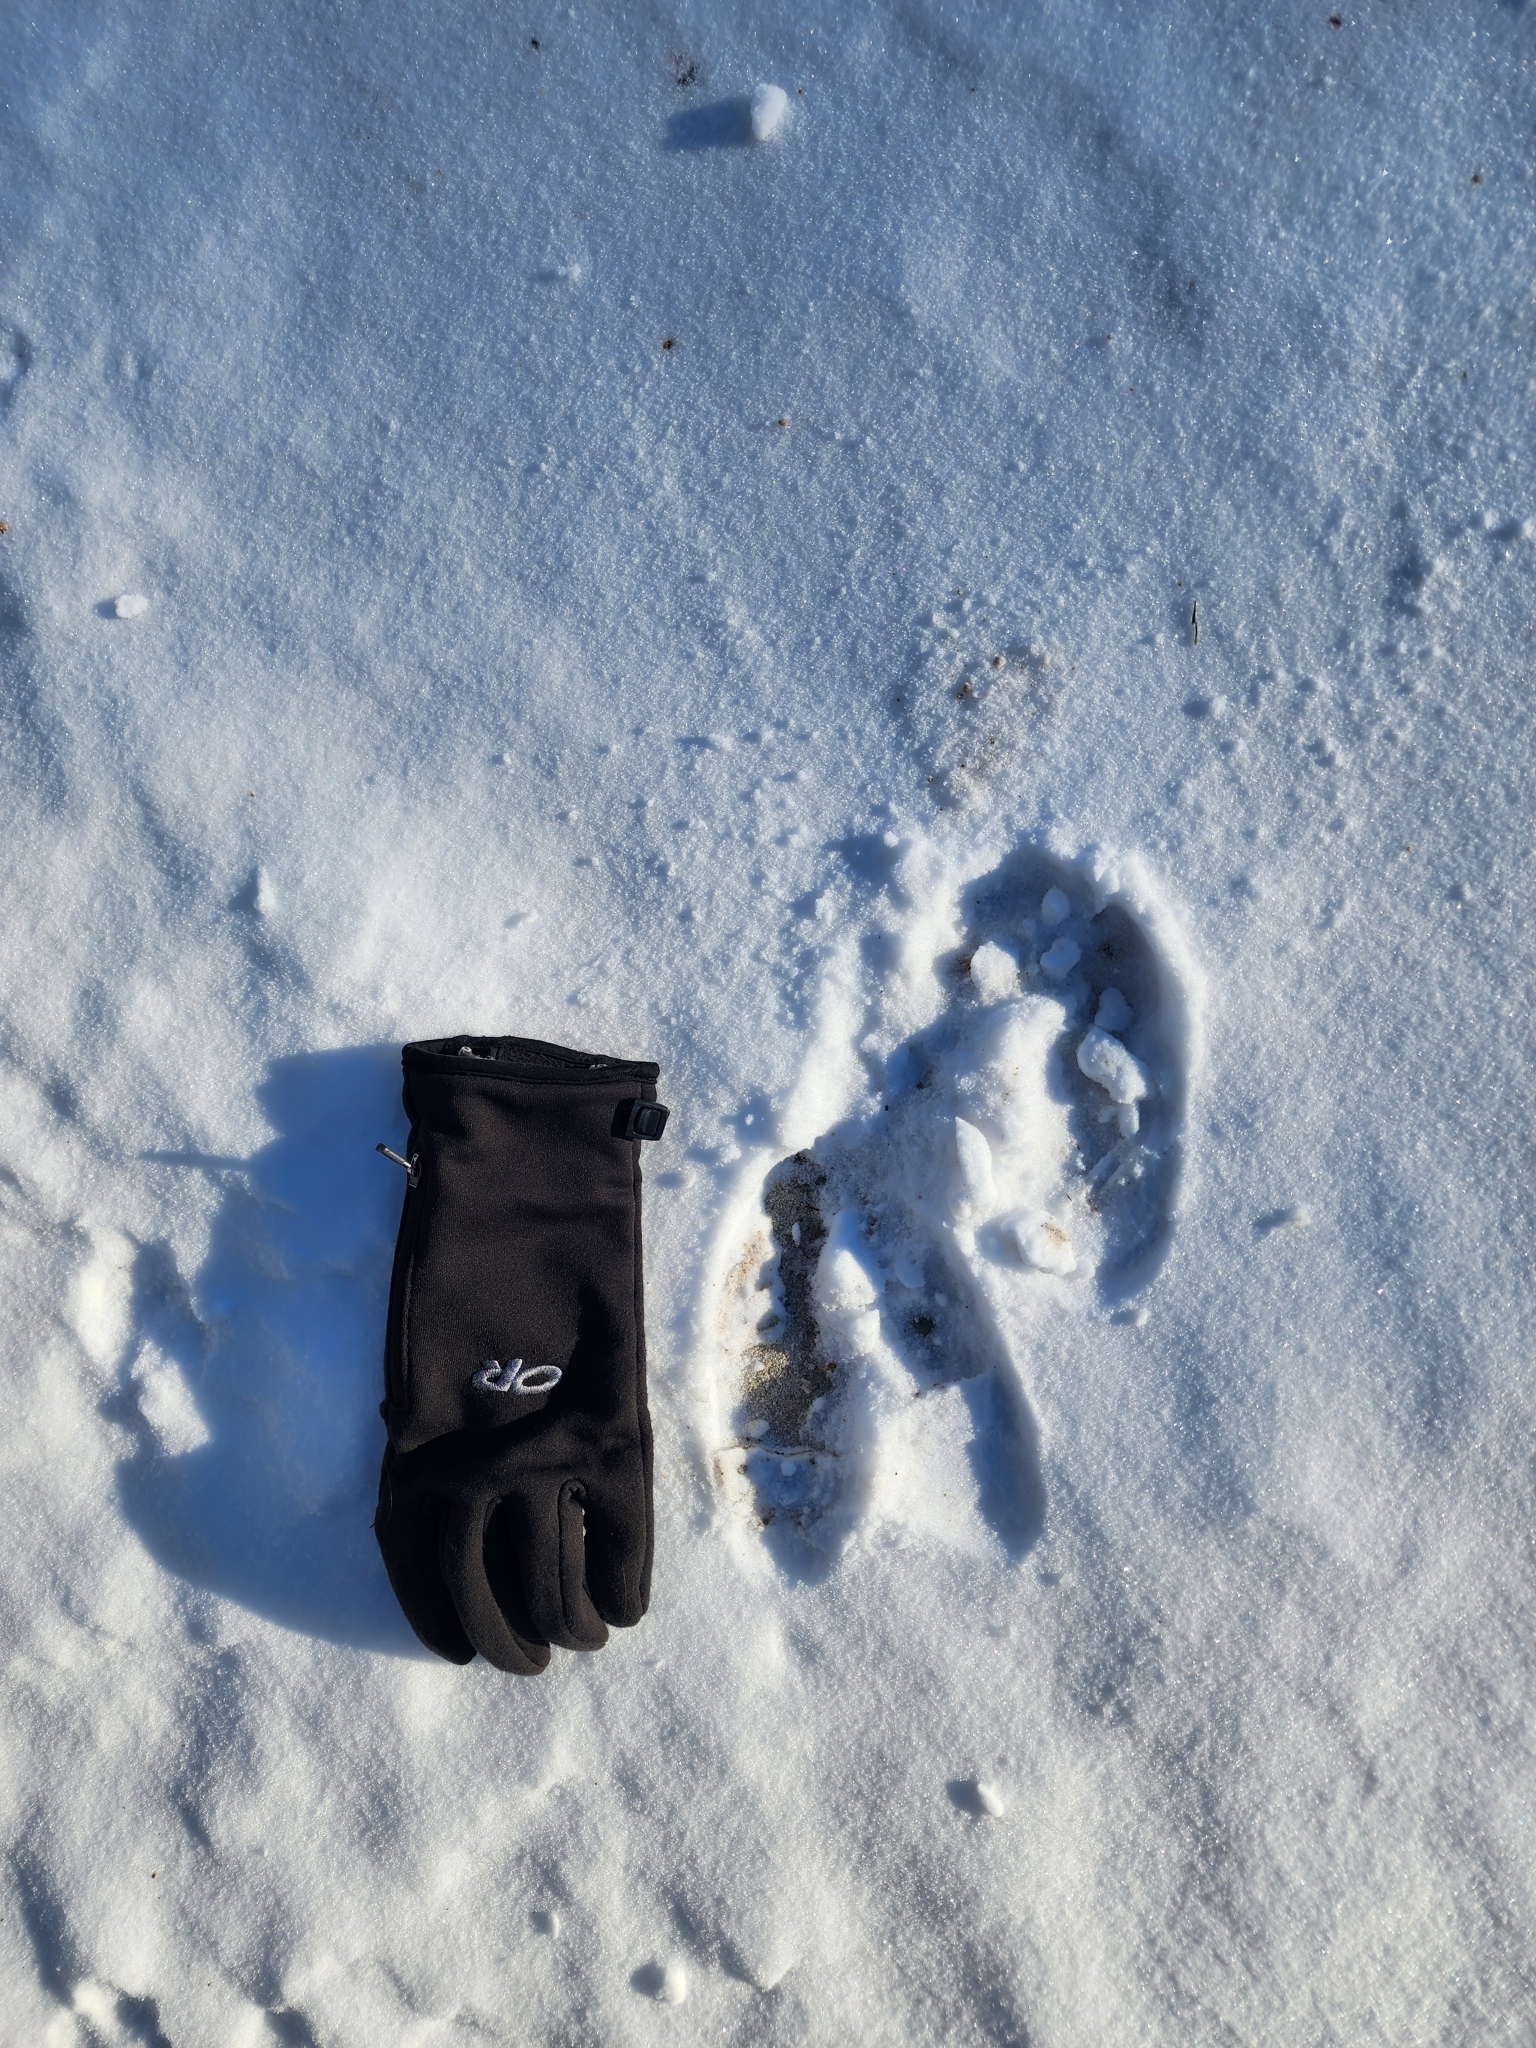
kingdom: Animalia
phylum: Chordata
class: Mammalia
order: Artiodactyla
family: Cervidae
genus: Alces
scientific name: Alces alces
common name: Moose
